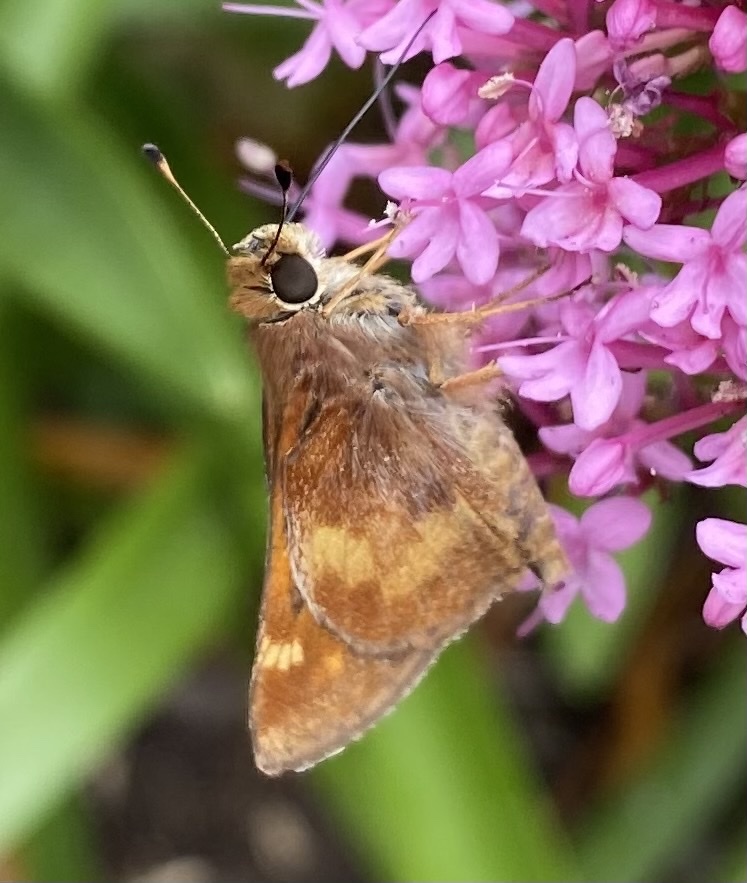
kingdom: Animalia
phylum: Arthropoda
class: Insecta
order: Lepidoptera
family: Hesperiidae
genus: Lon
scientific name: Lon melane
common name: Umber skipper
